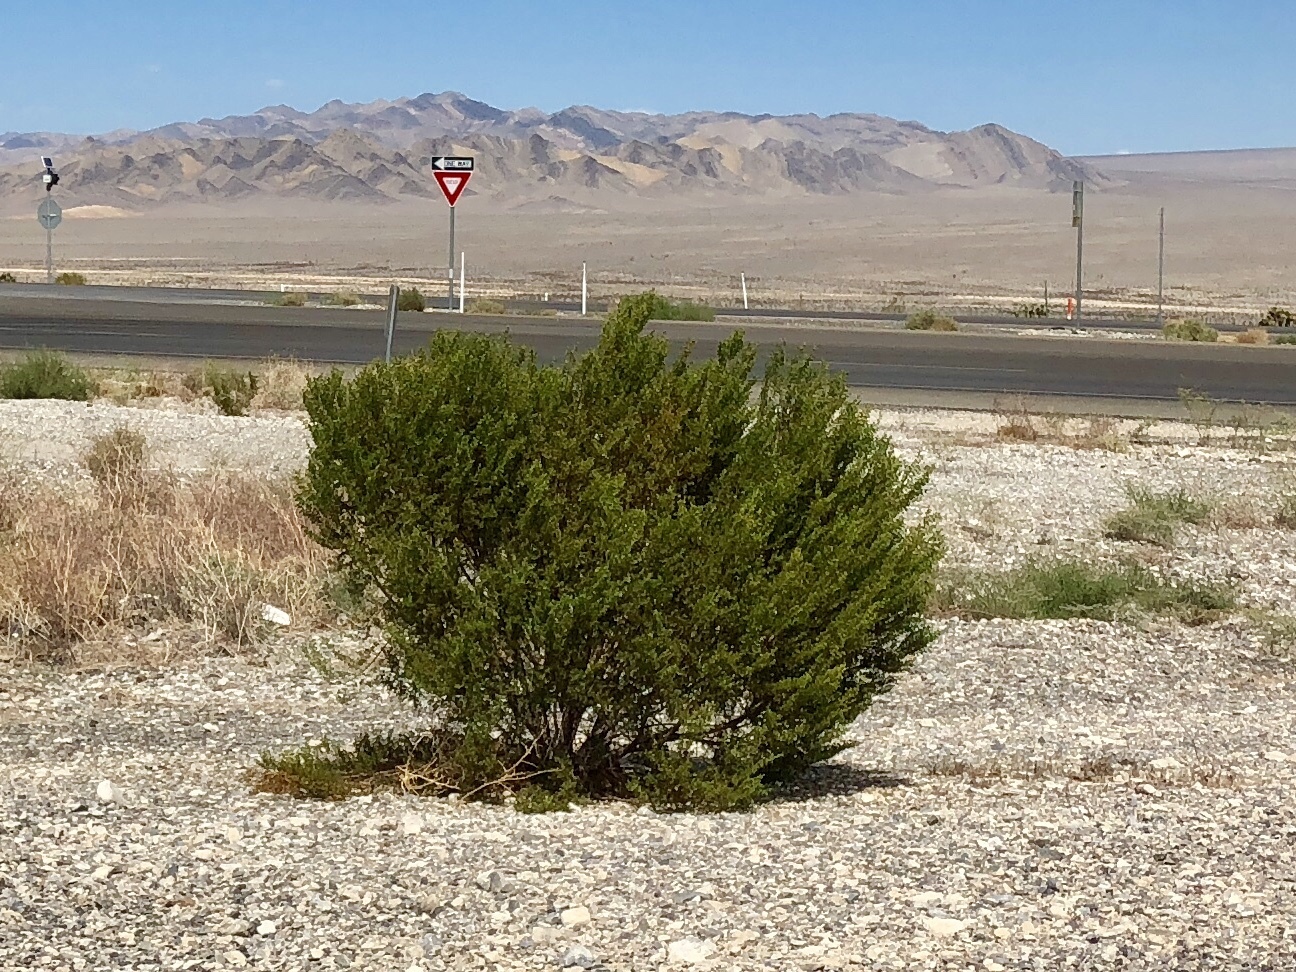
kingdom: Plantae
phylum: Tracheophyta
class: Magnoliopsida
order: Zygophyllales
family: Zygophyllaceae
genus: Larrea
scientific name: Larrea tridentata
